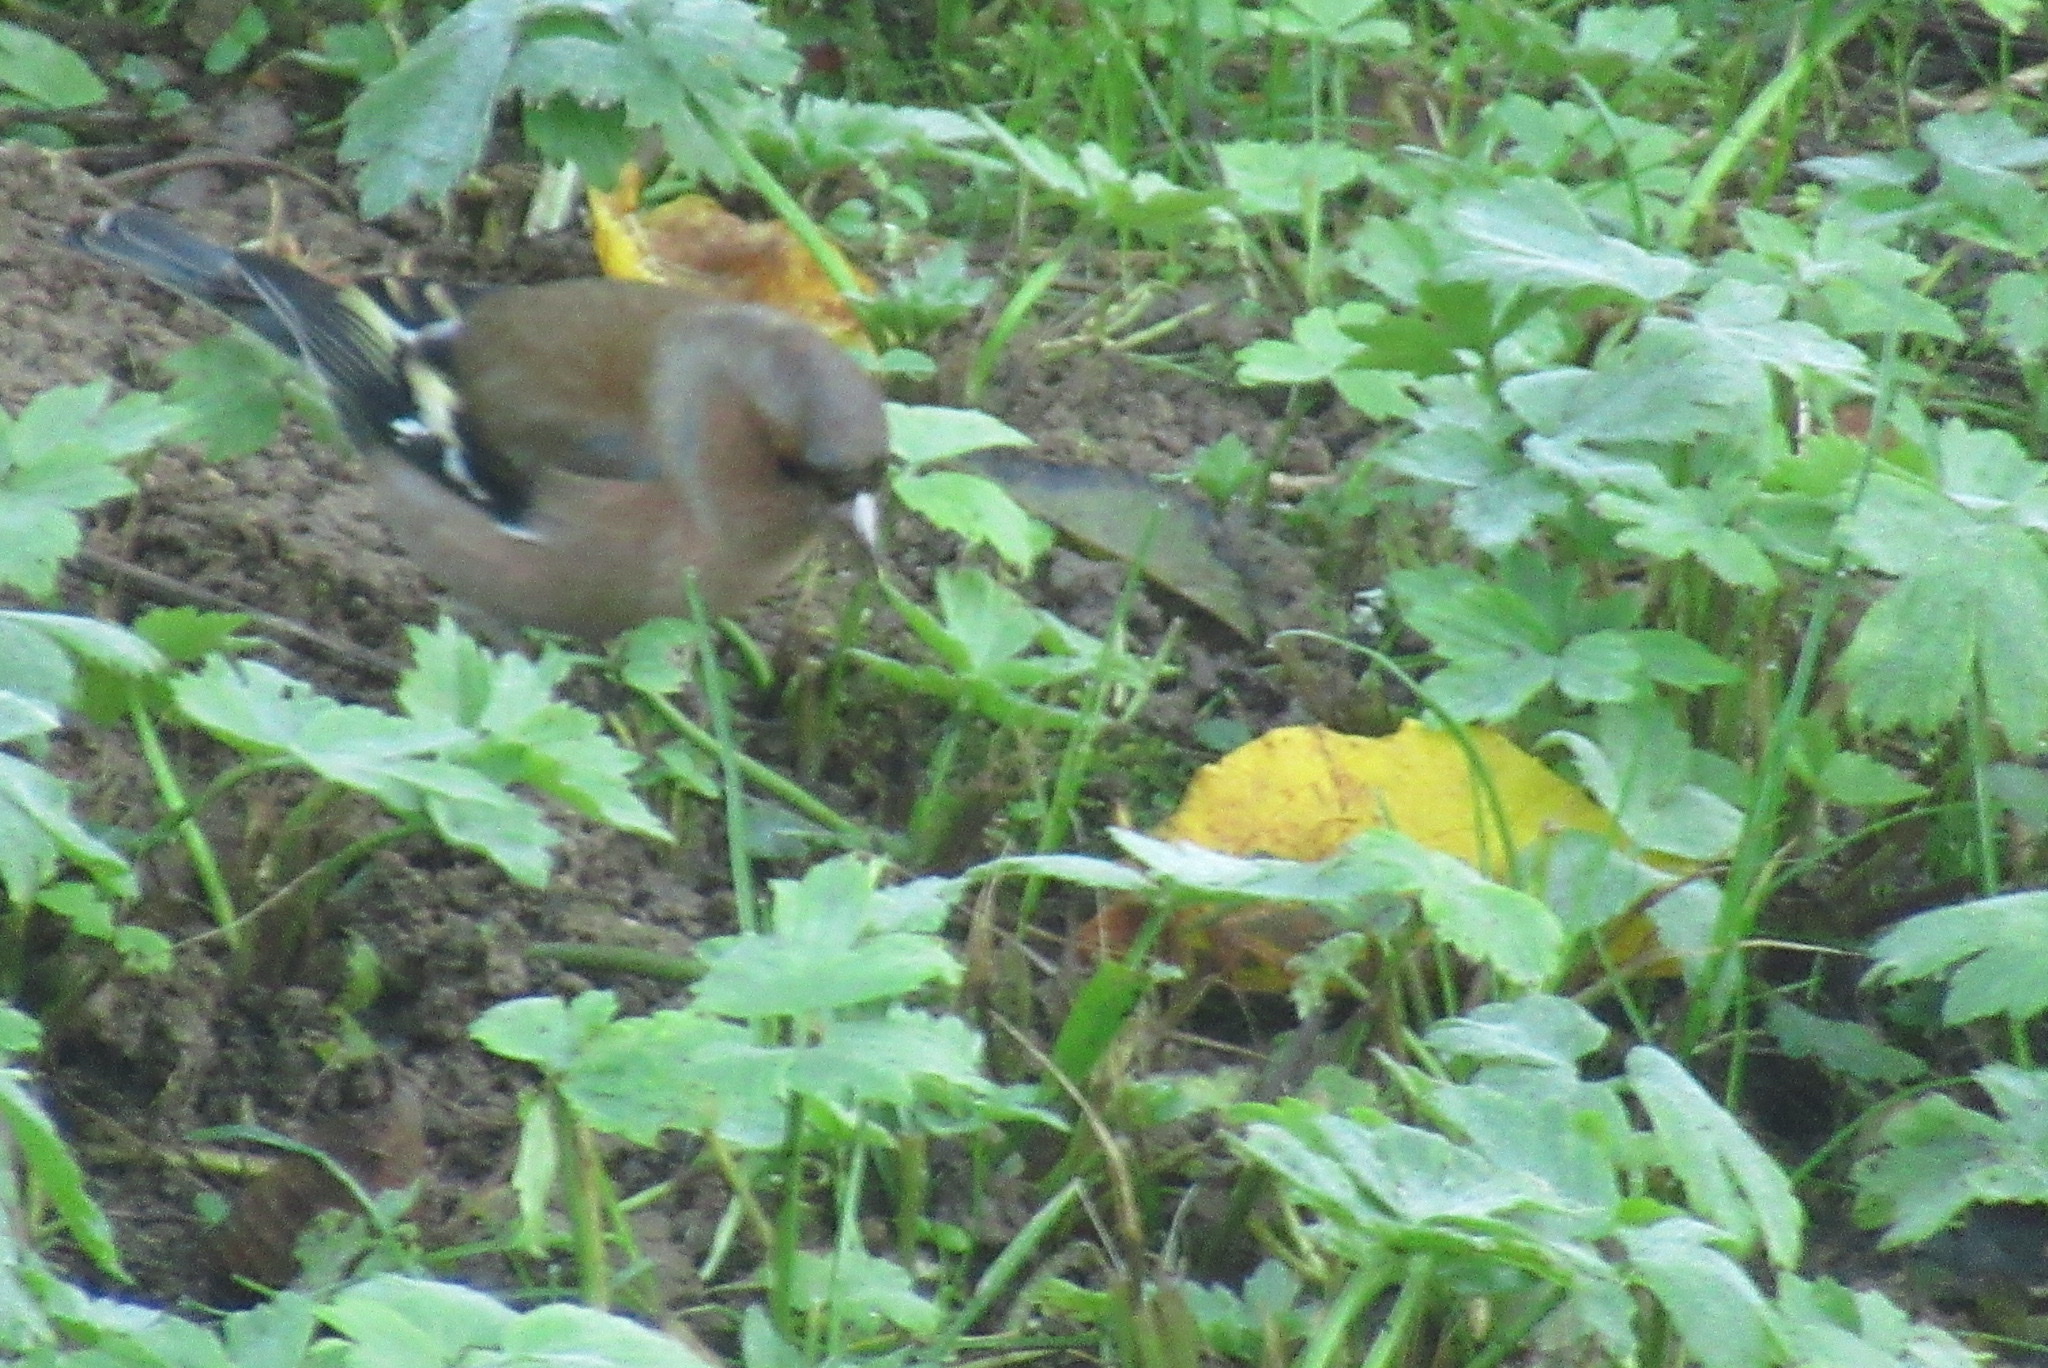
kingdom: Animalia
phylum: Chordata
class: Aves
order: Passeriformes
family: Fringillidae
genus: Fringilla
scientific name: Fringilla coelebs
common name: Common chaffinch
